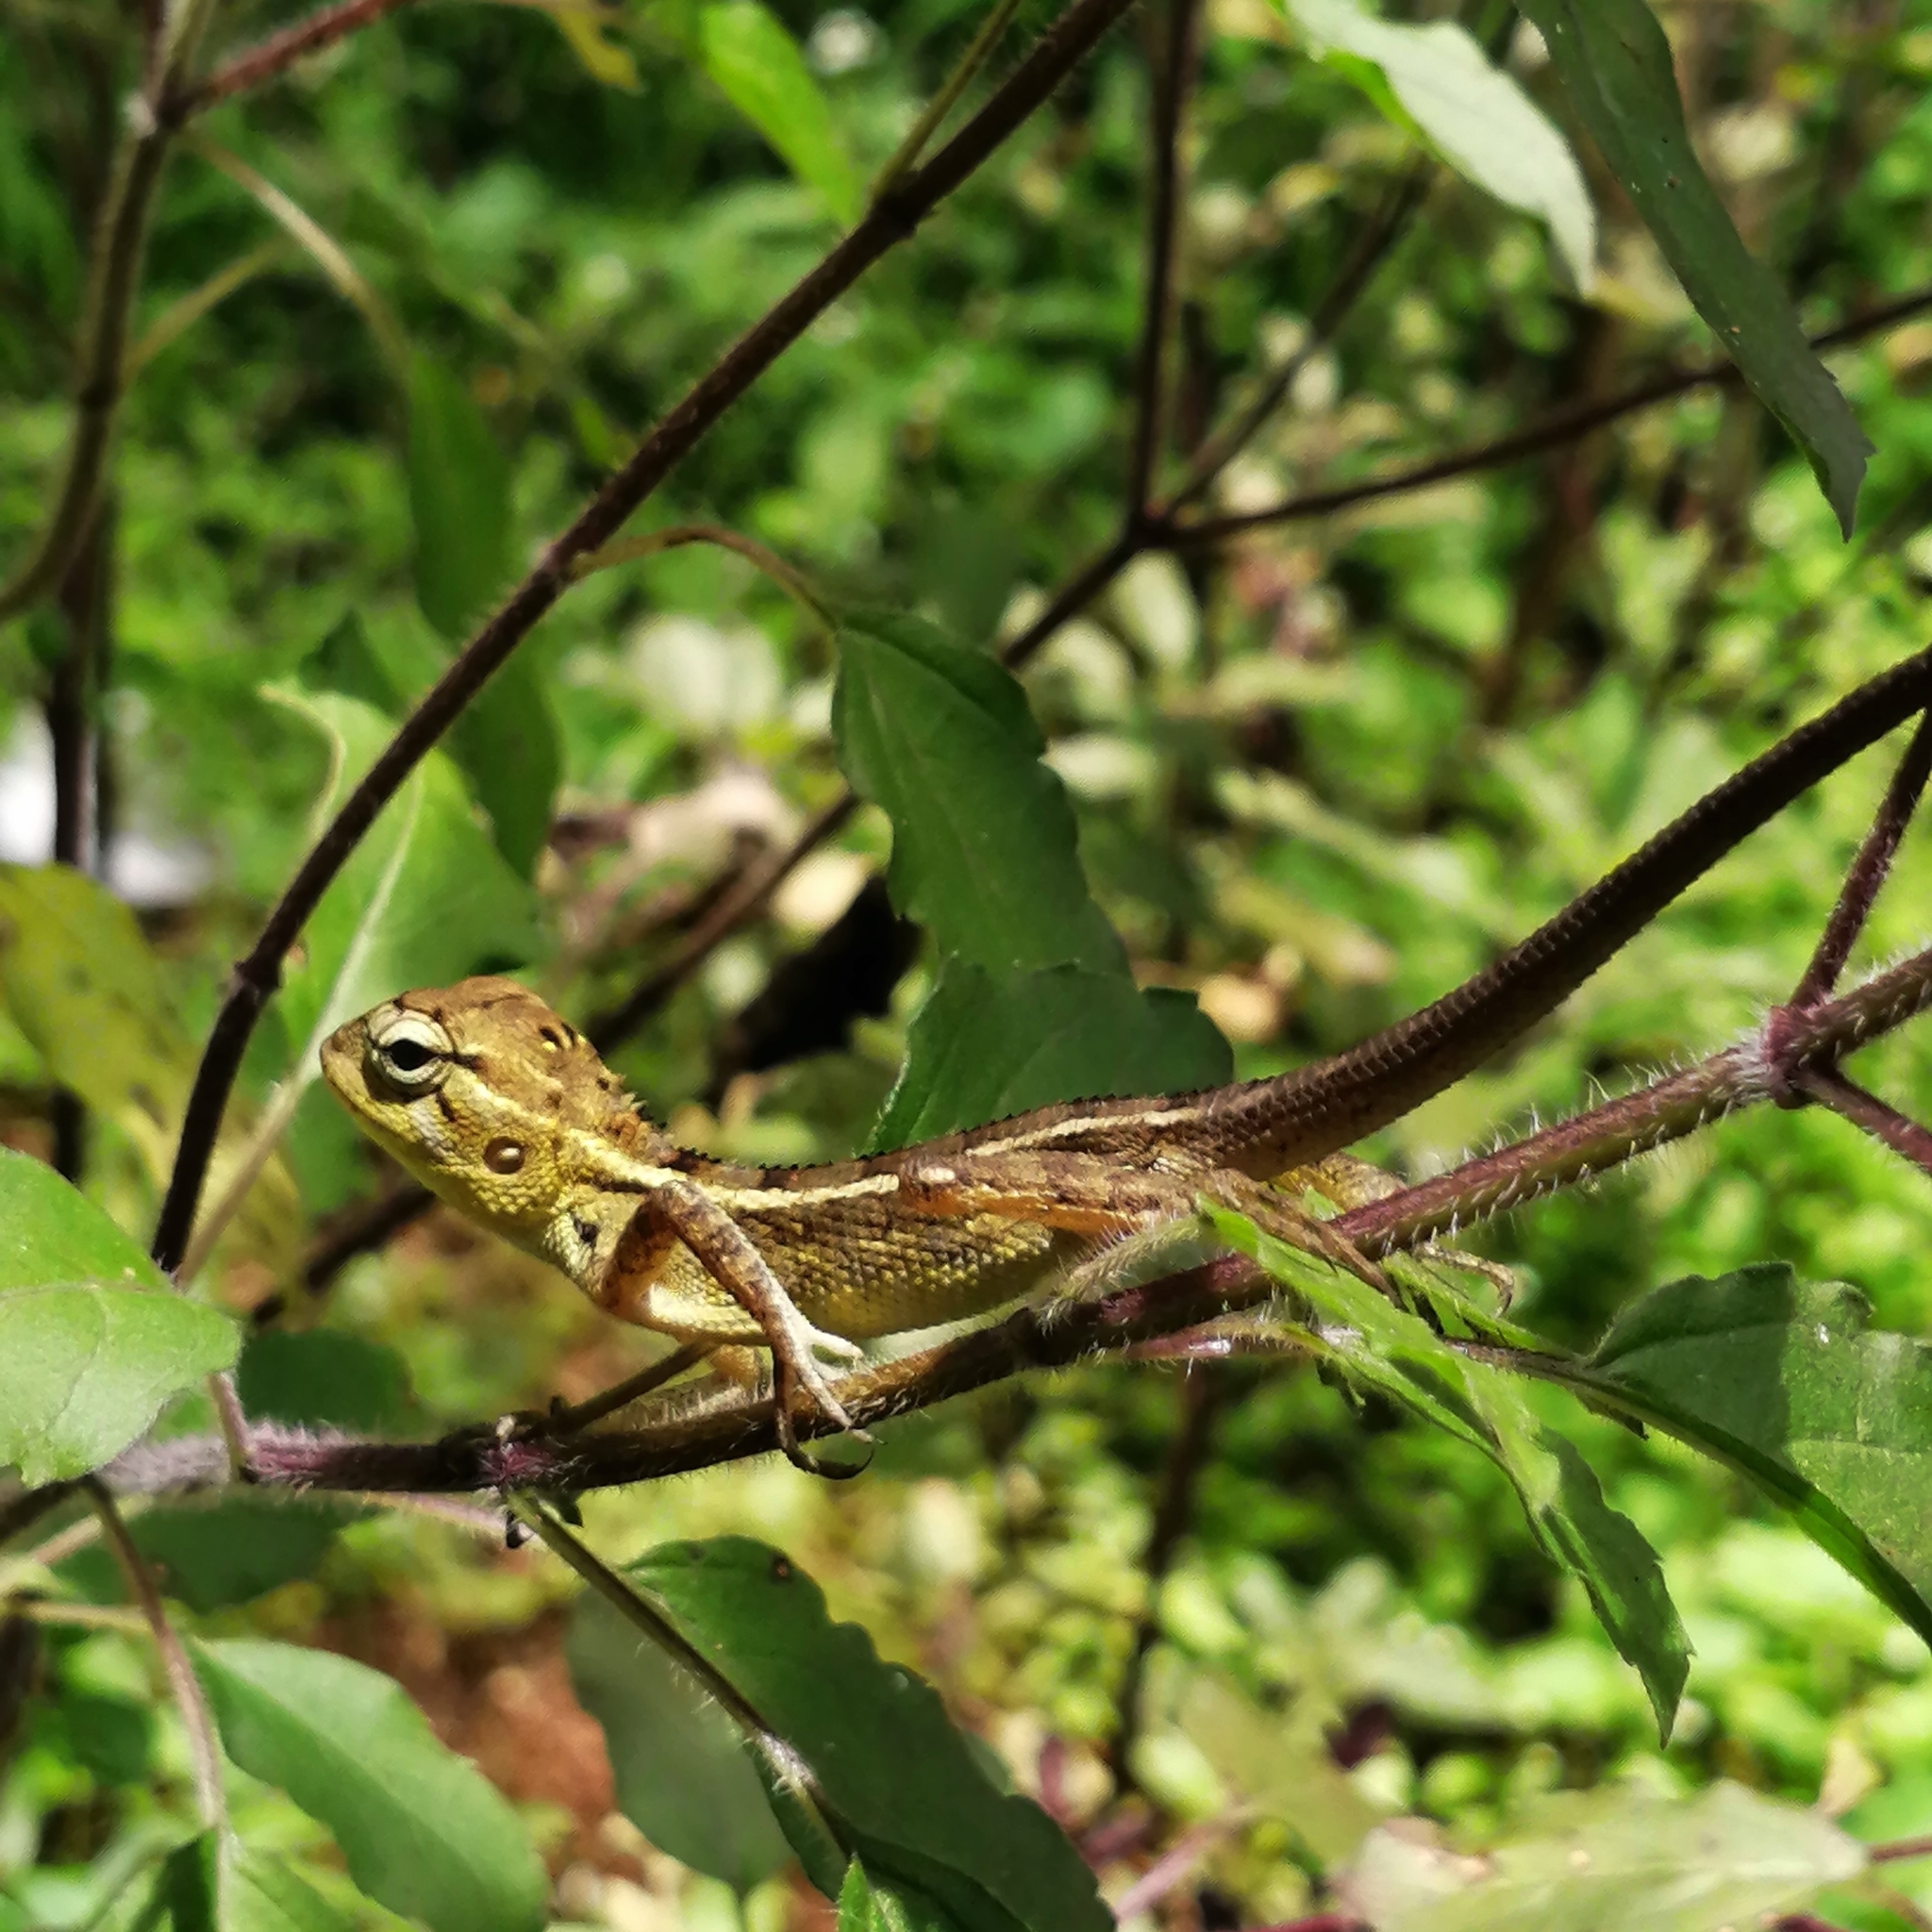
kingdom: Animalia
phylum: Chordata
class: Squamata
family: Agamidae
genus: Calotes
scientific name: Calotes versicolor
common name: Oriental garden lizard
